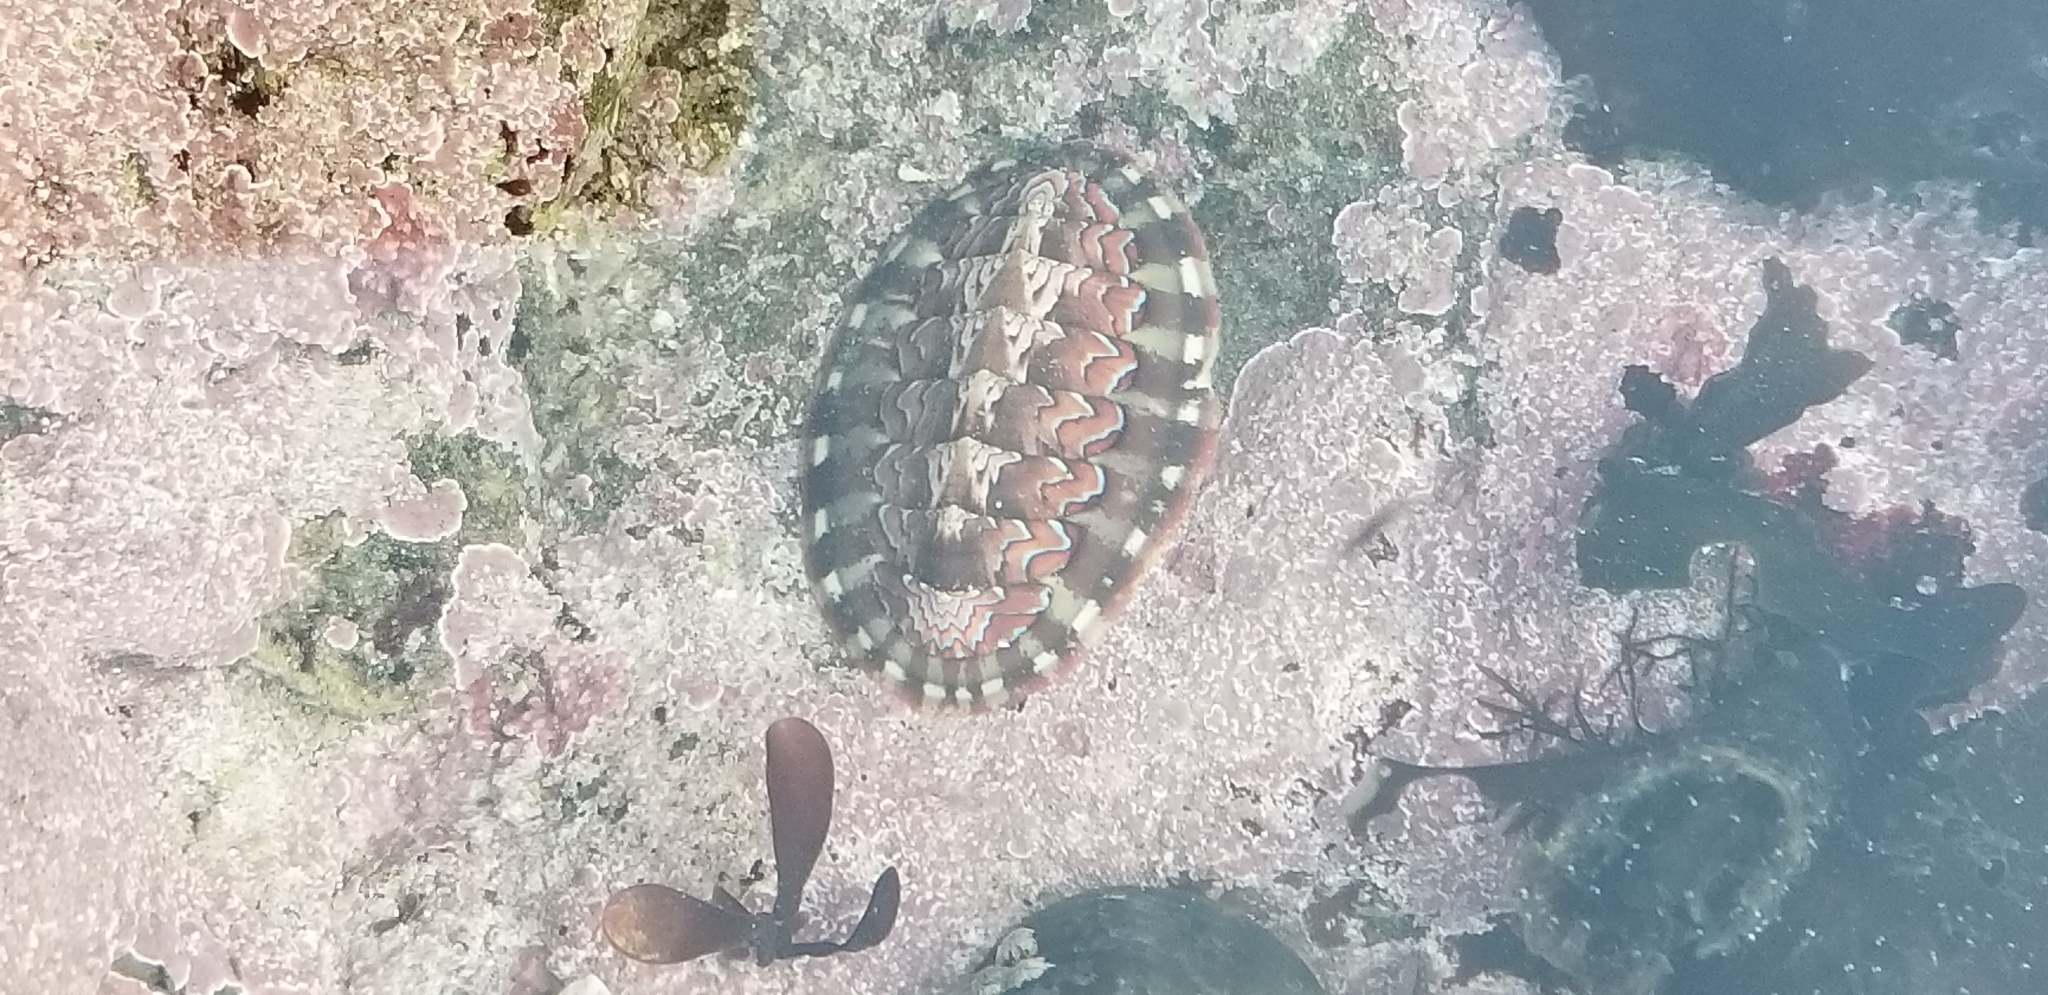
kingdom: Animalia
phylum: Mollusca
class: Polyplacophora
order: Chitonida
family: Tonicellidae
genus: Tonicella
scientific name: Tonicella lokii
